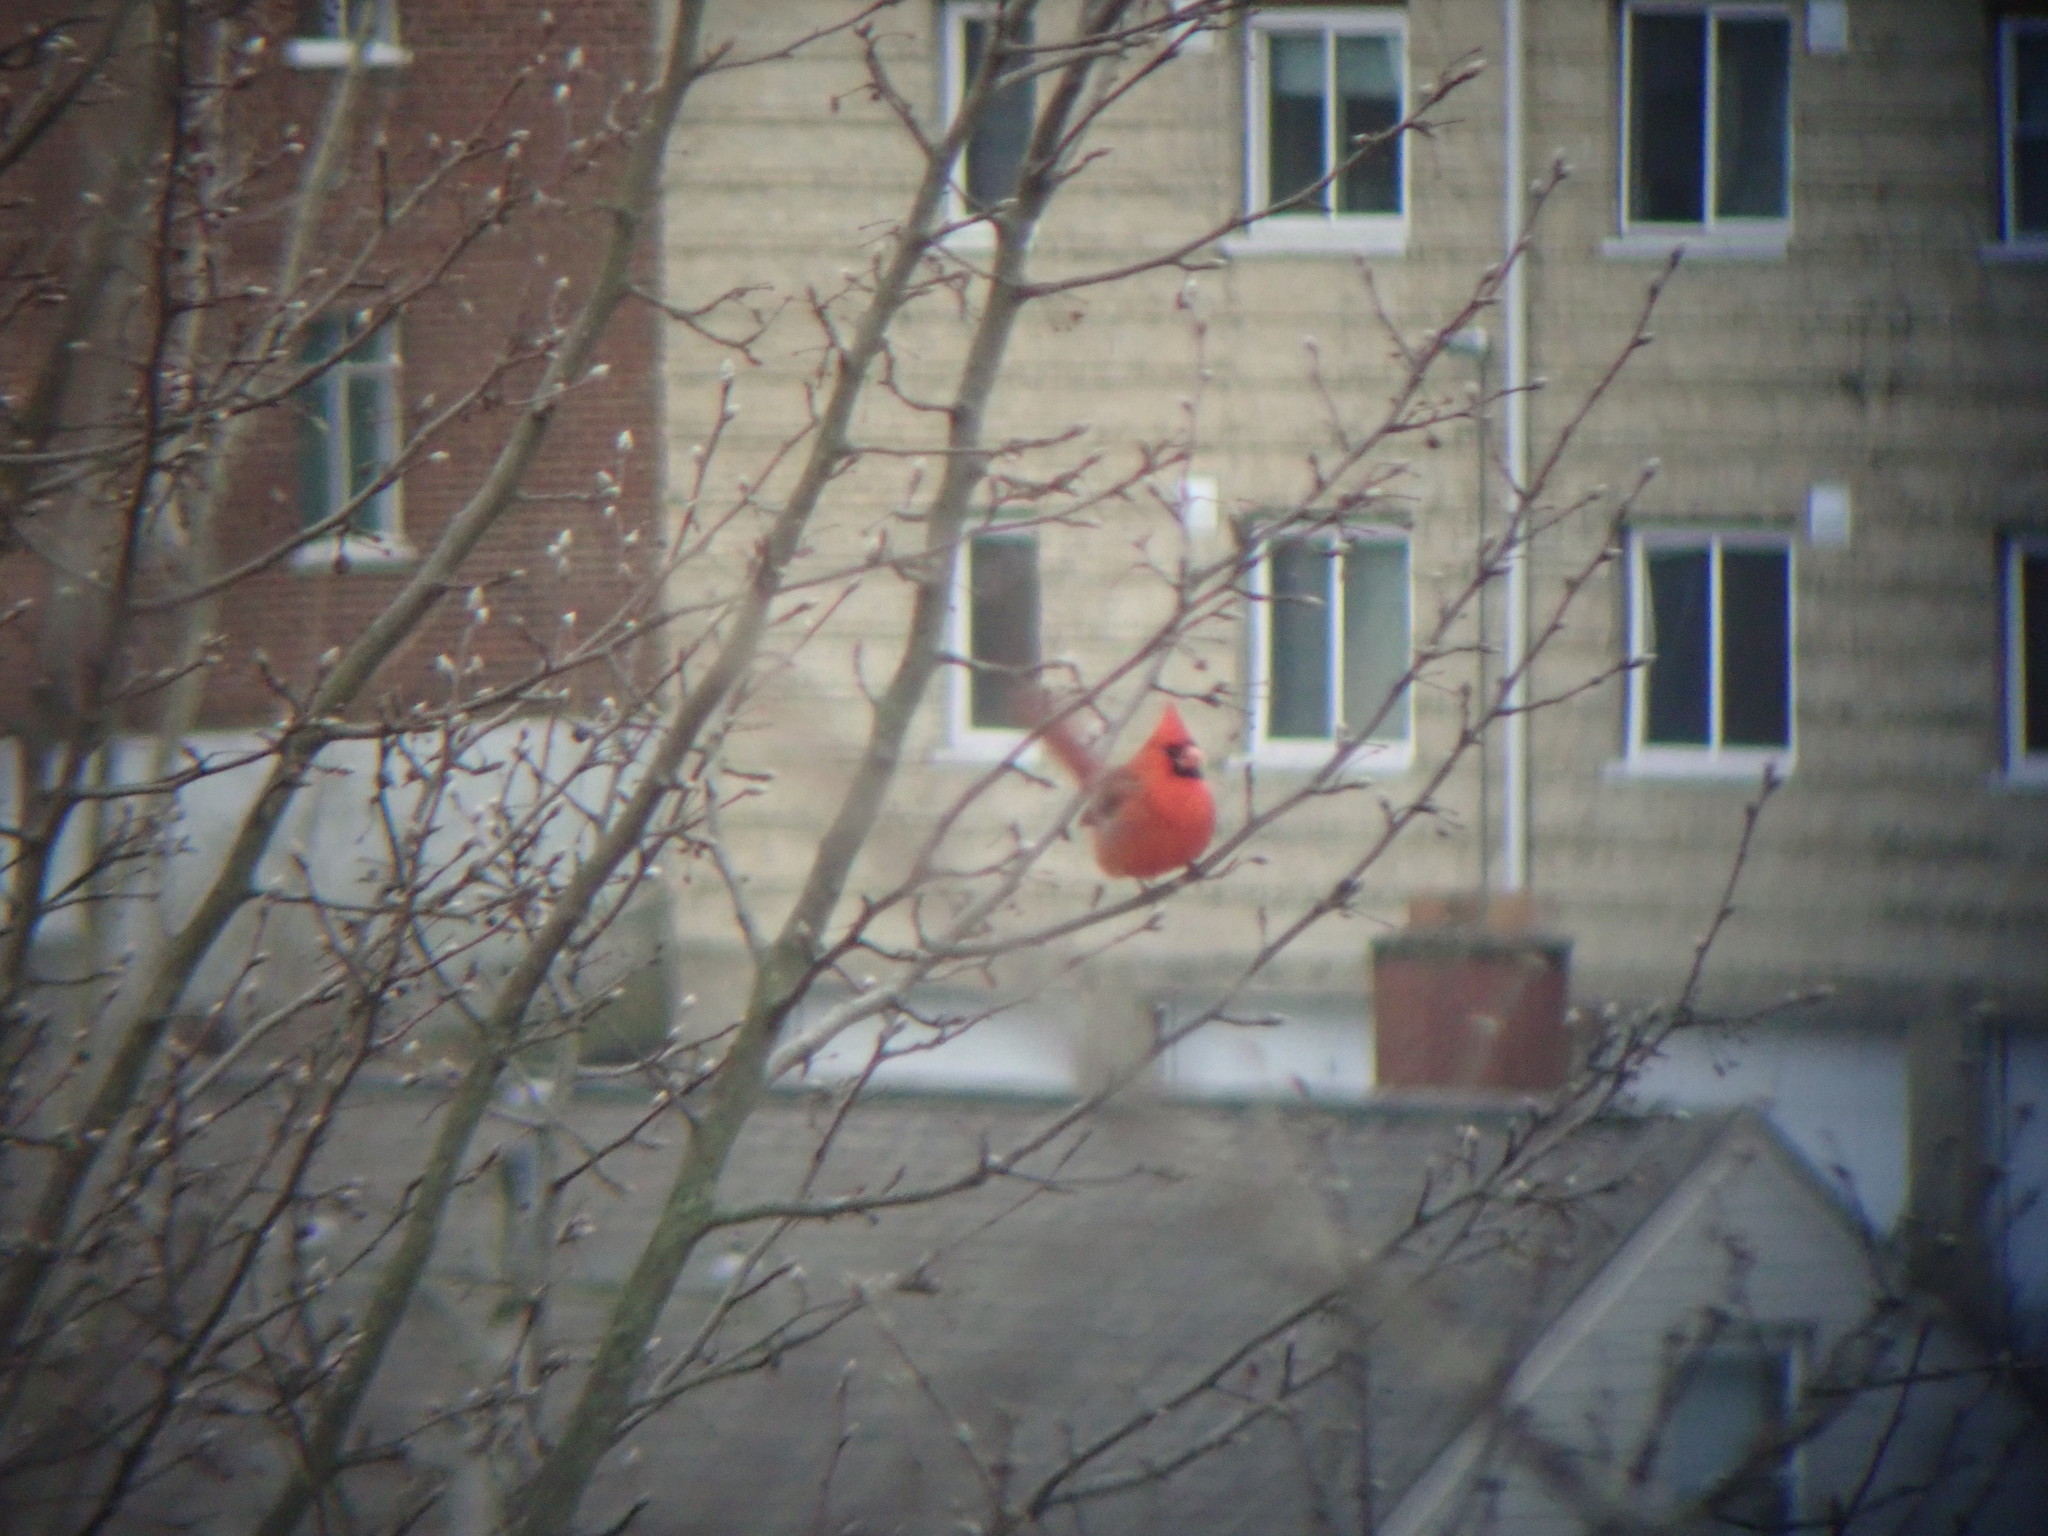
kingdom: Animalia
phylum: Chordata
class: Aves
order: Passeriformes
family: Cardinalidae
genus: Cardinalis
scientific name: Cardinalis cardinalis
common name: Northern cardinal
